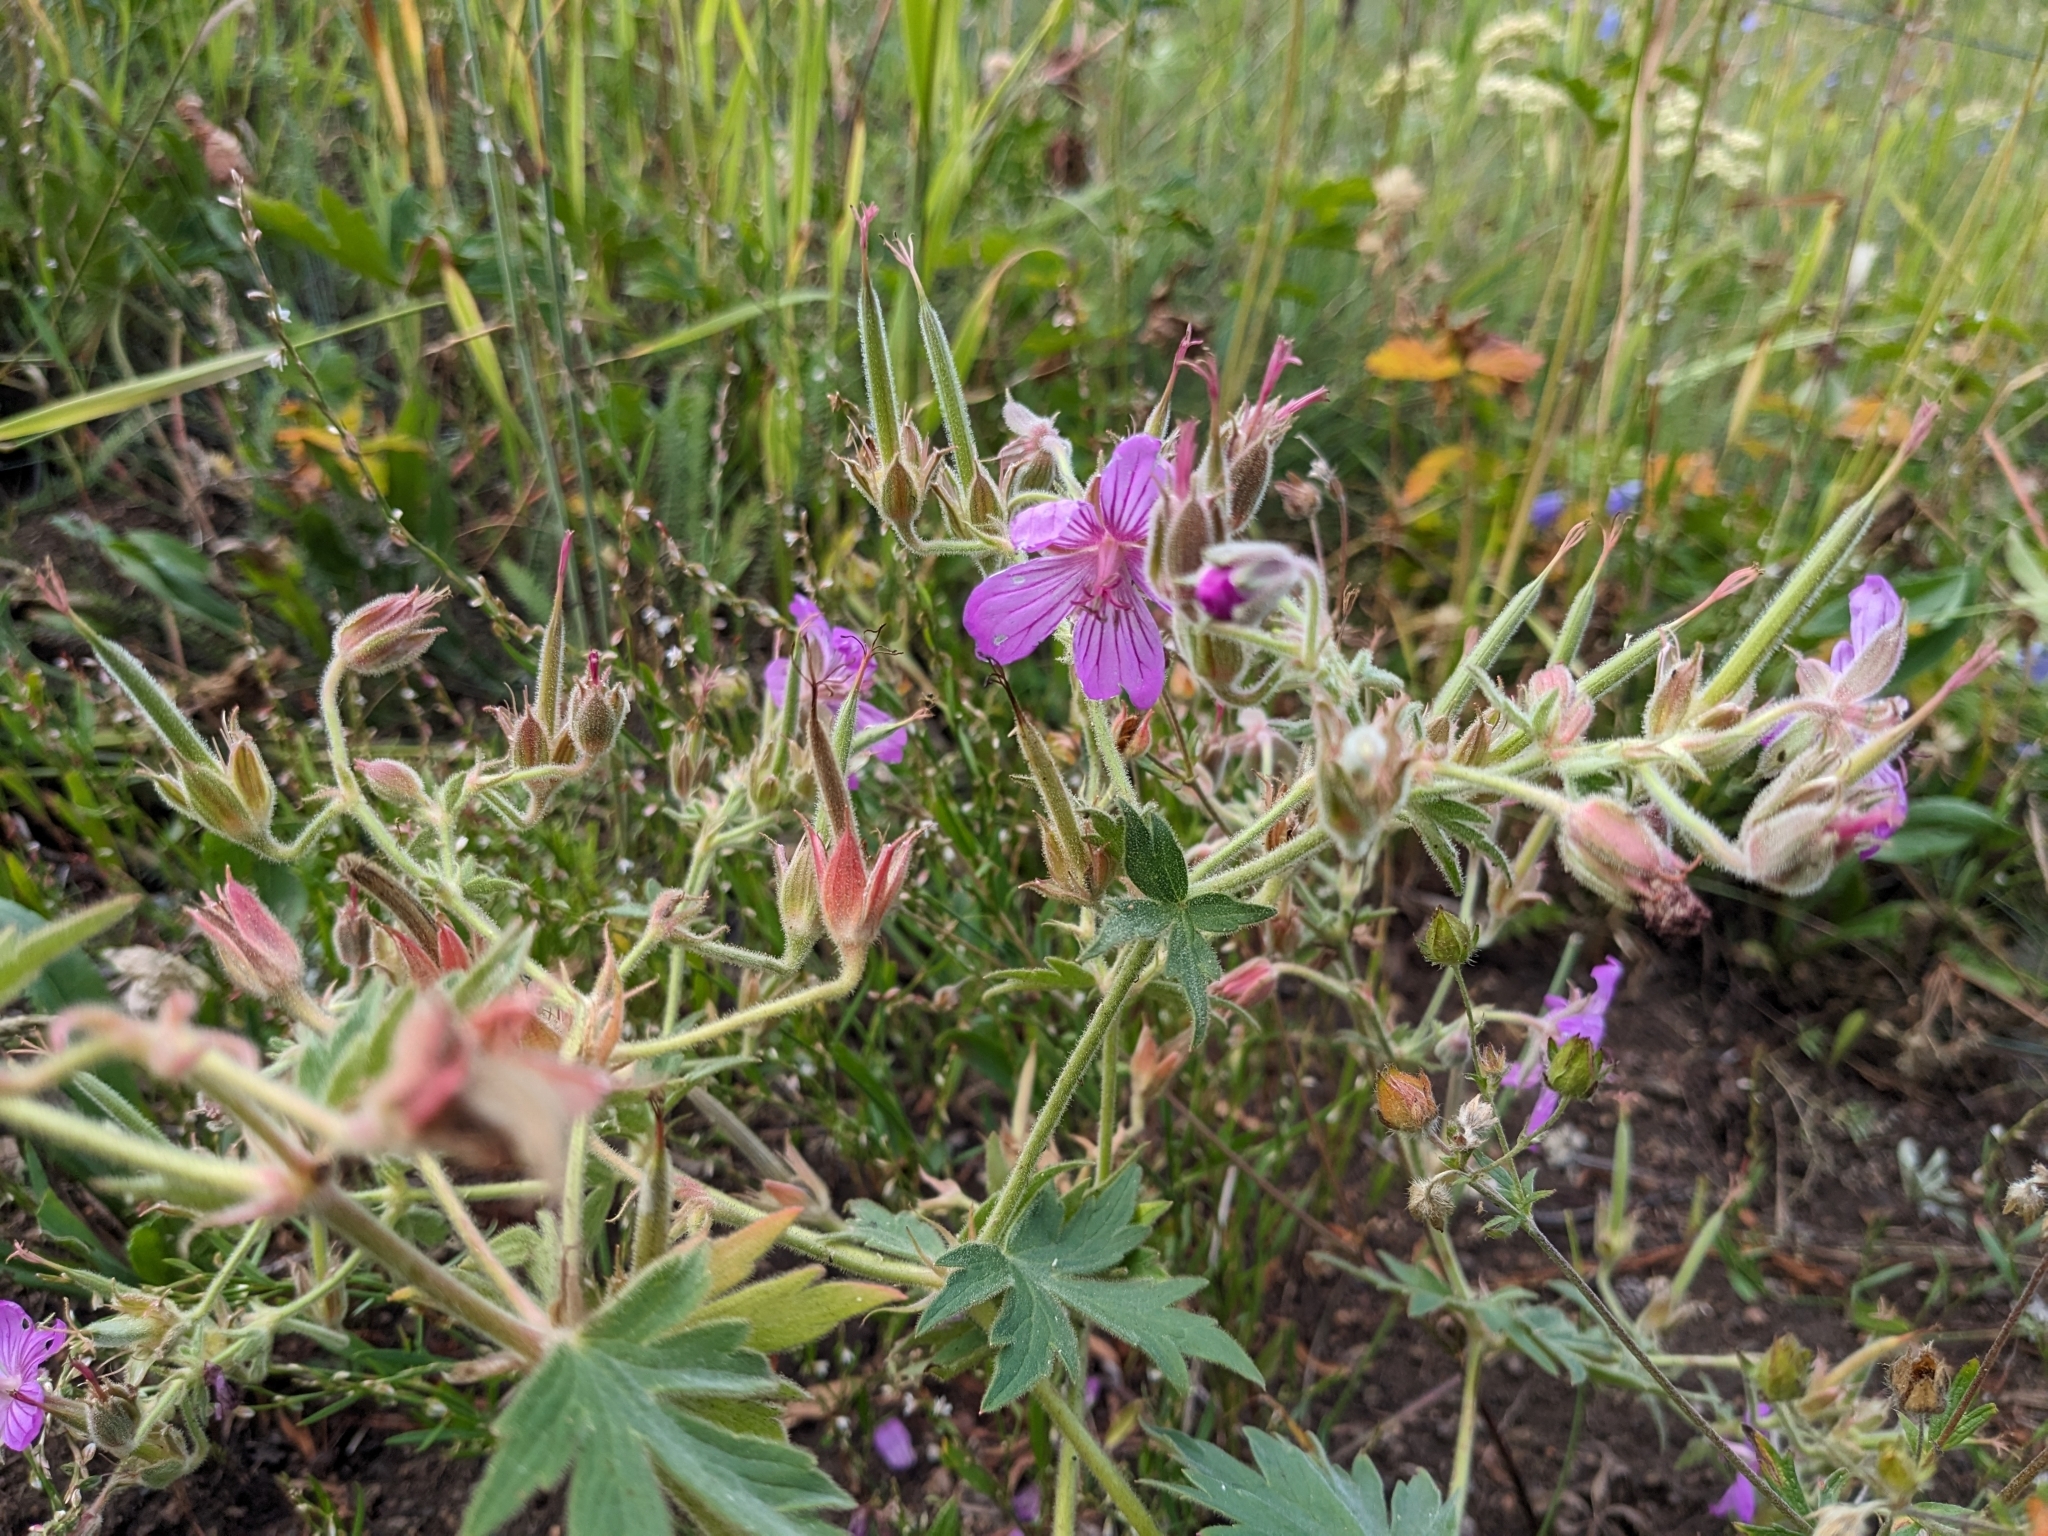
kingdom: Plantae
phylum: Tracheophyta
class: Magnoliopsida
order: Geraniales
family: Geraniaceae
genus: Geranium
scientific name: Geranium viscosissimum
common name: Purple geranium
